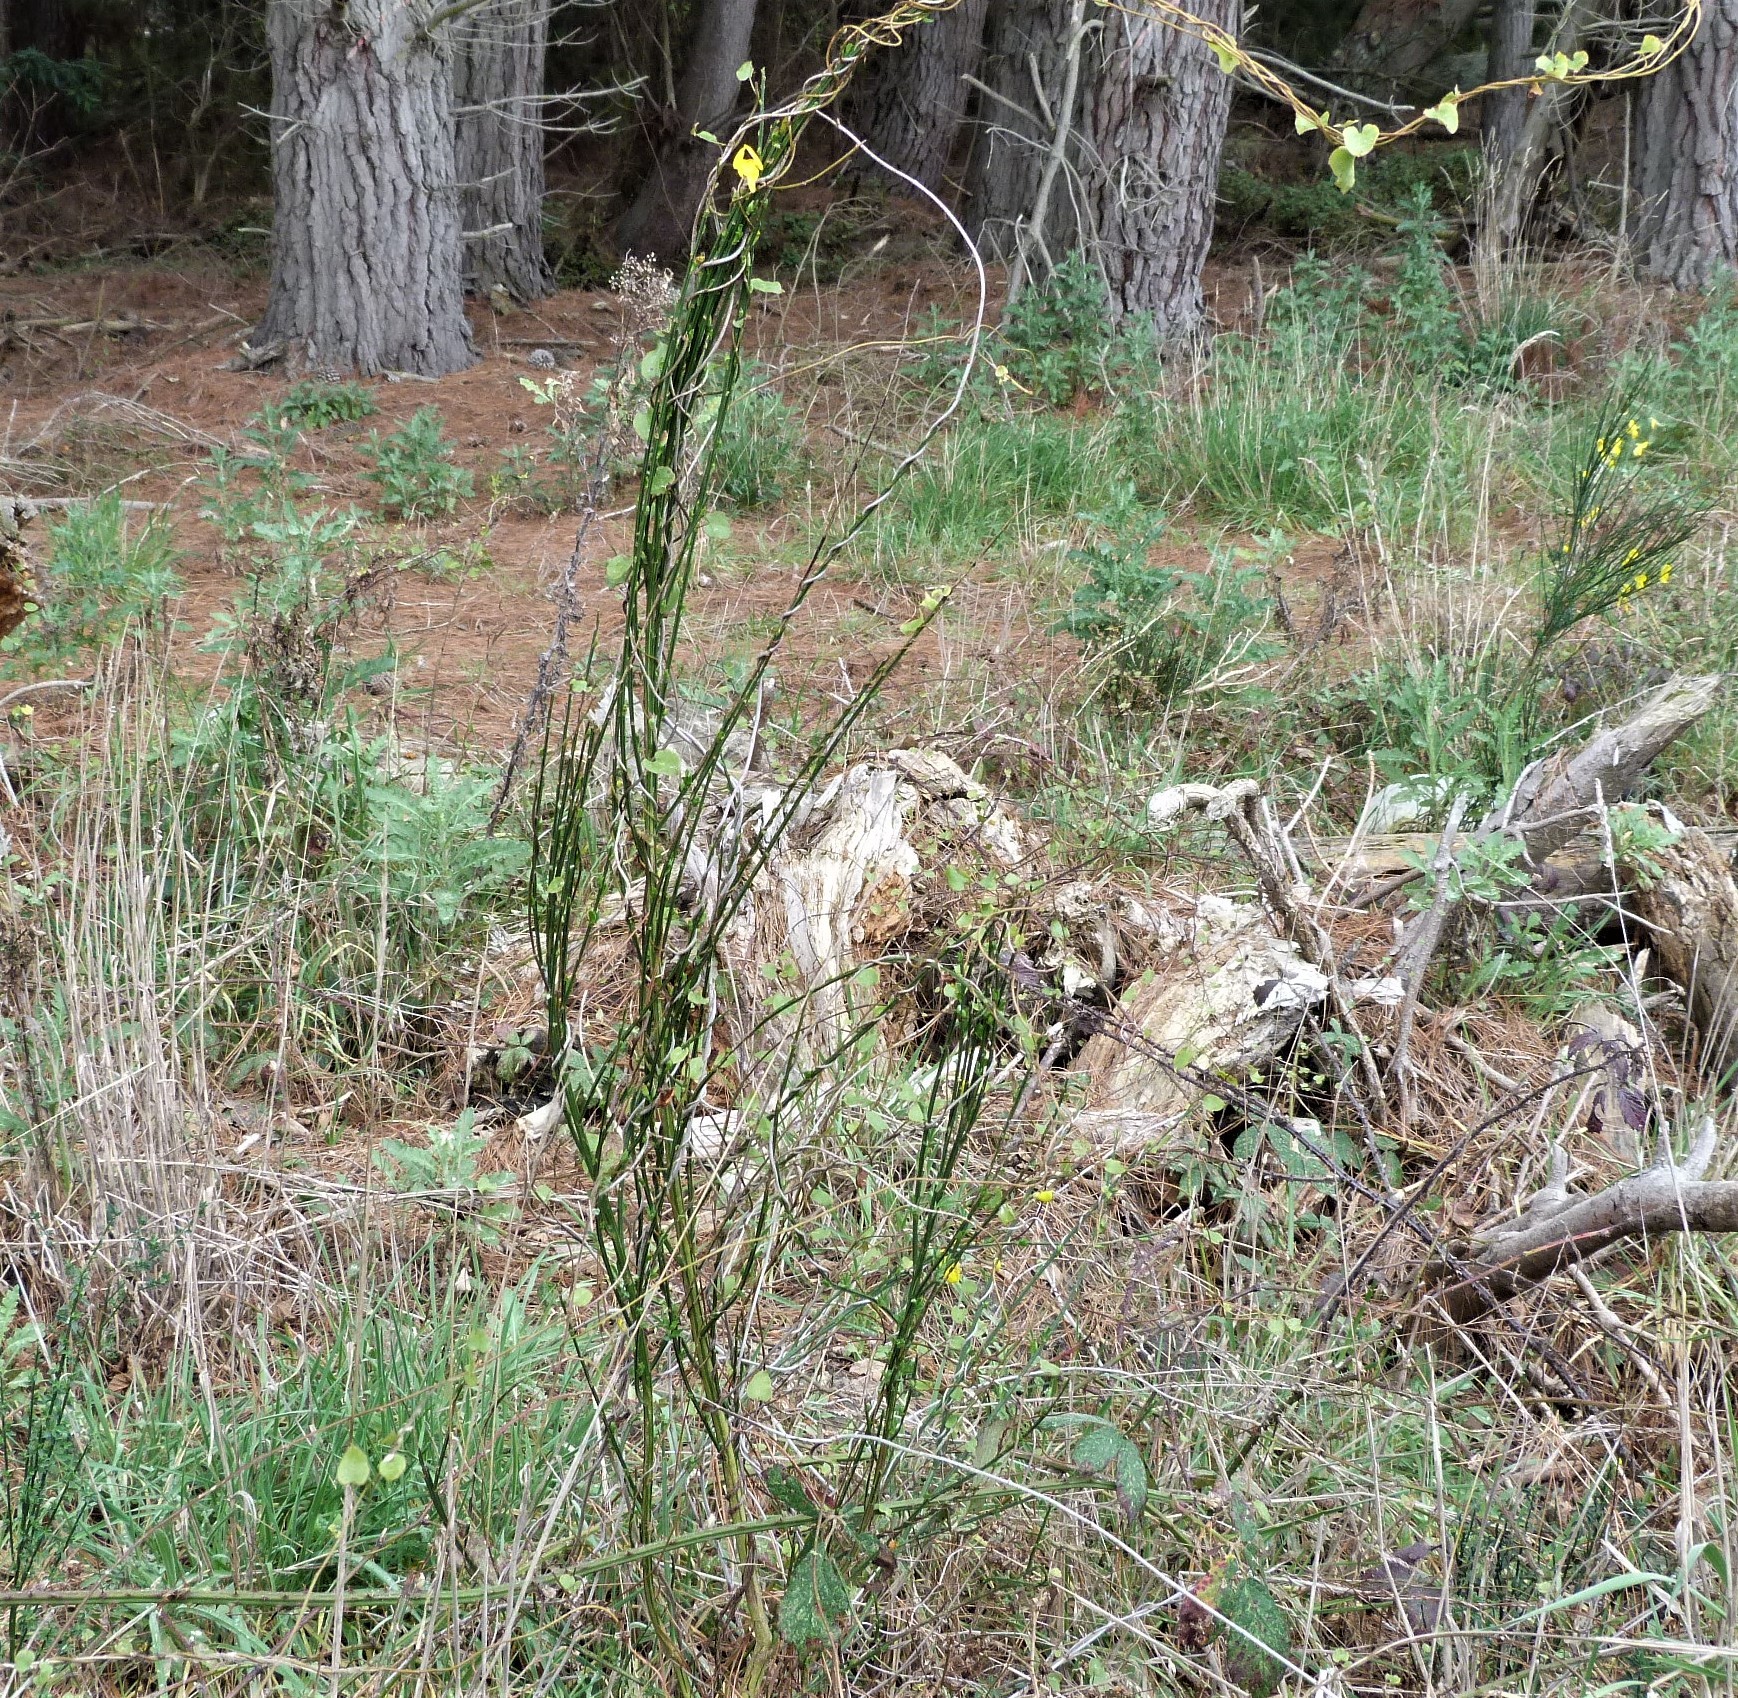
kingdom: Plantae
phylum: Tracheophyta
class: Magnoliopsida
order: Caryophyllales
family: Polygonaceae
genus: Muehlenbeckia
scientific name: Muehlenbeckia australis
